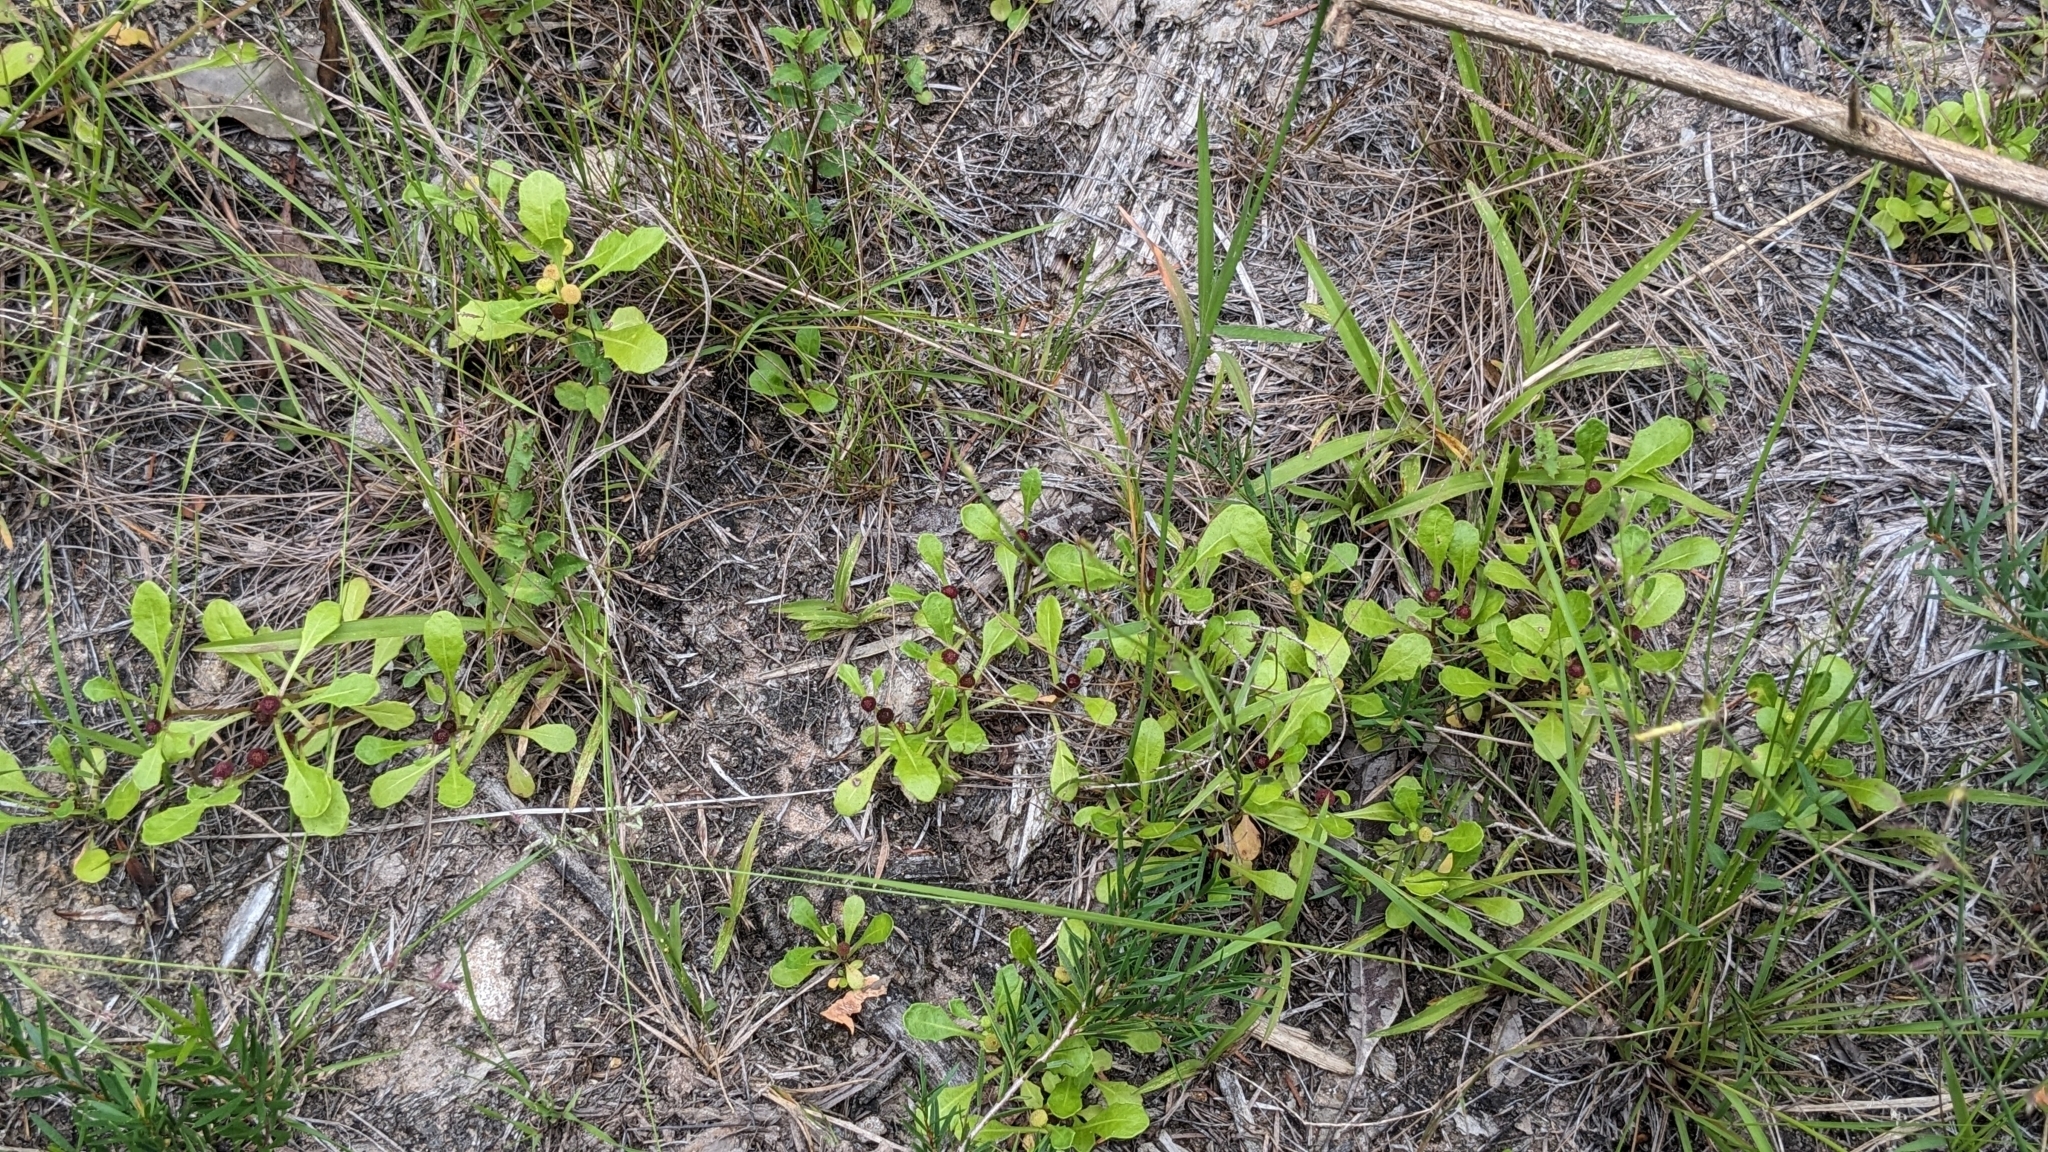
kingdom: Plantae
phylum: Tracheophyta
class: Magnoliopsida
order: Asterales
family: Asteraceae
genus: Sphaeromorphaea
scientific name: Sphaeromorphaea australis
